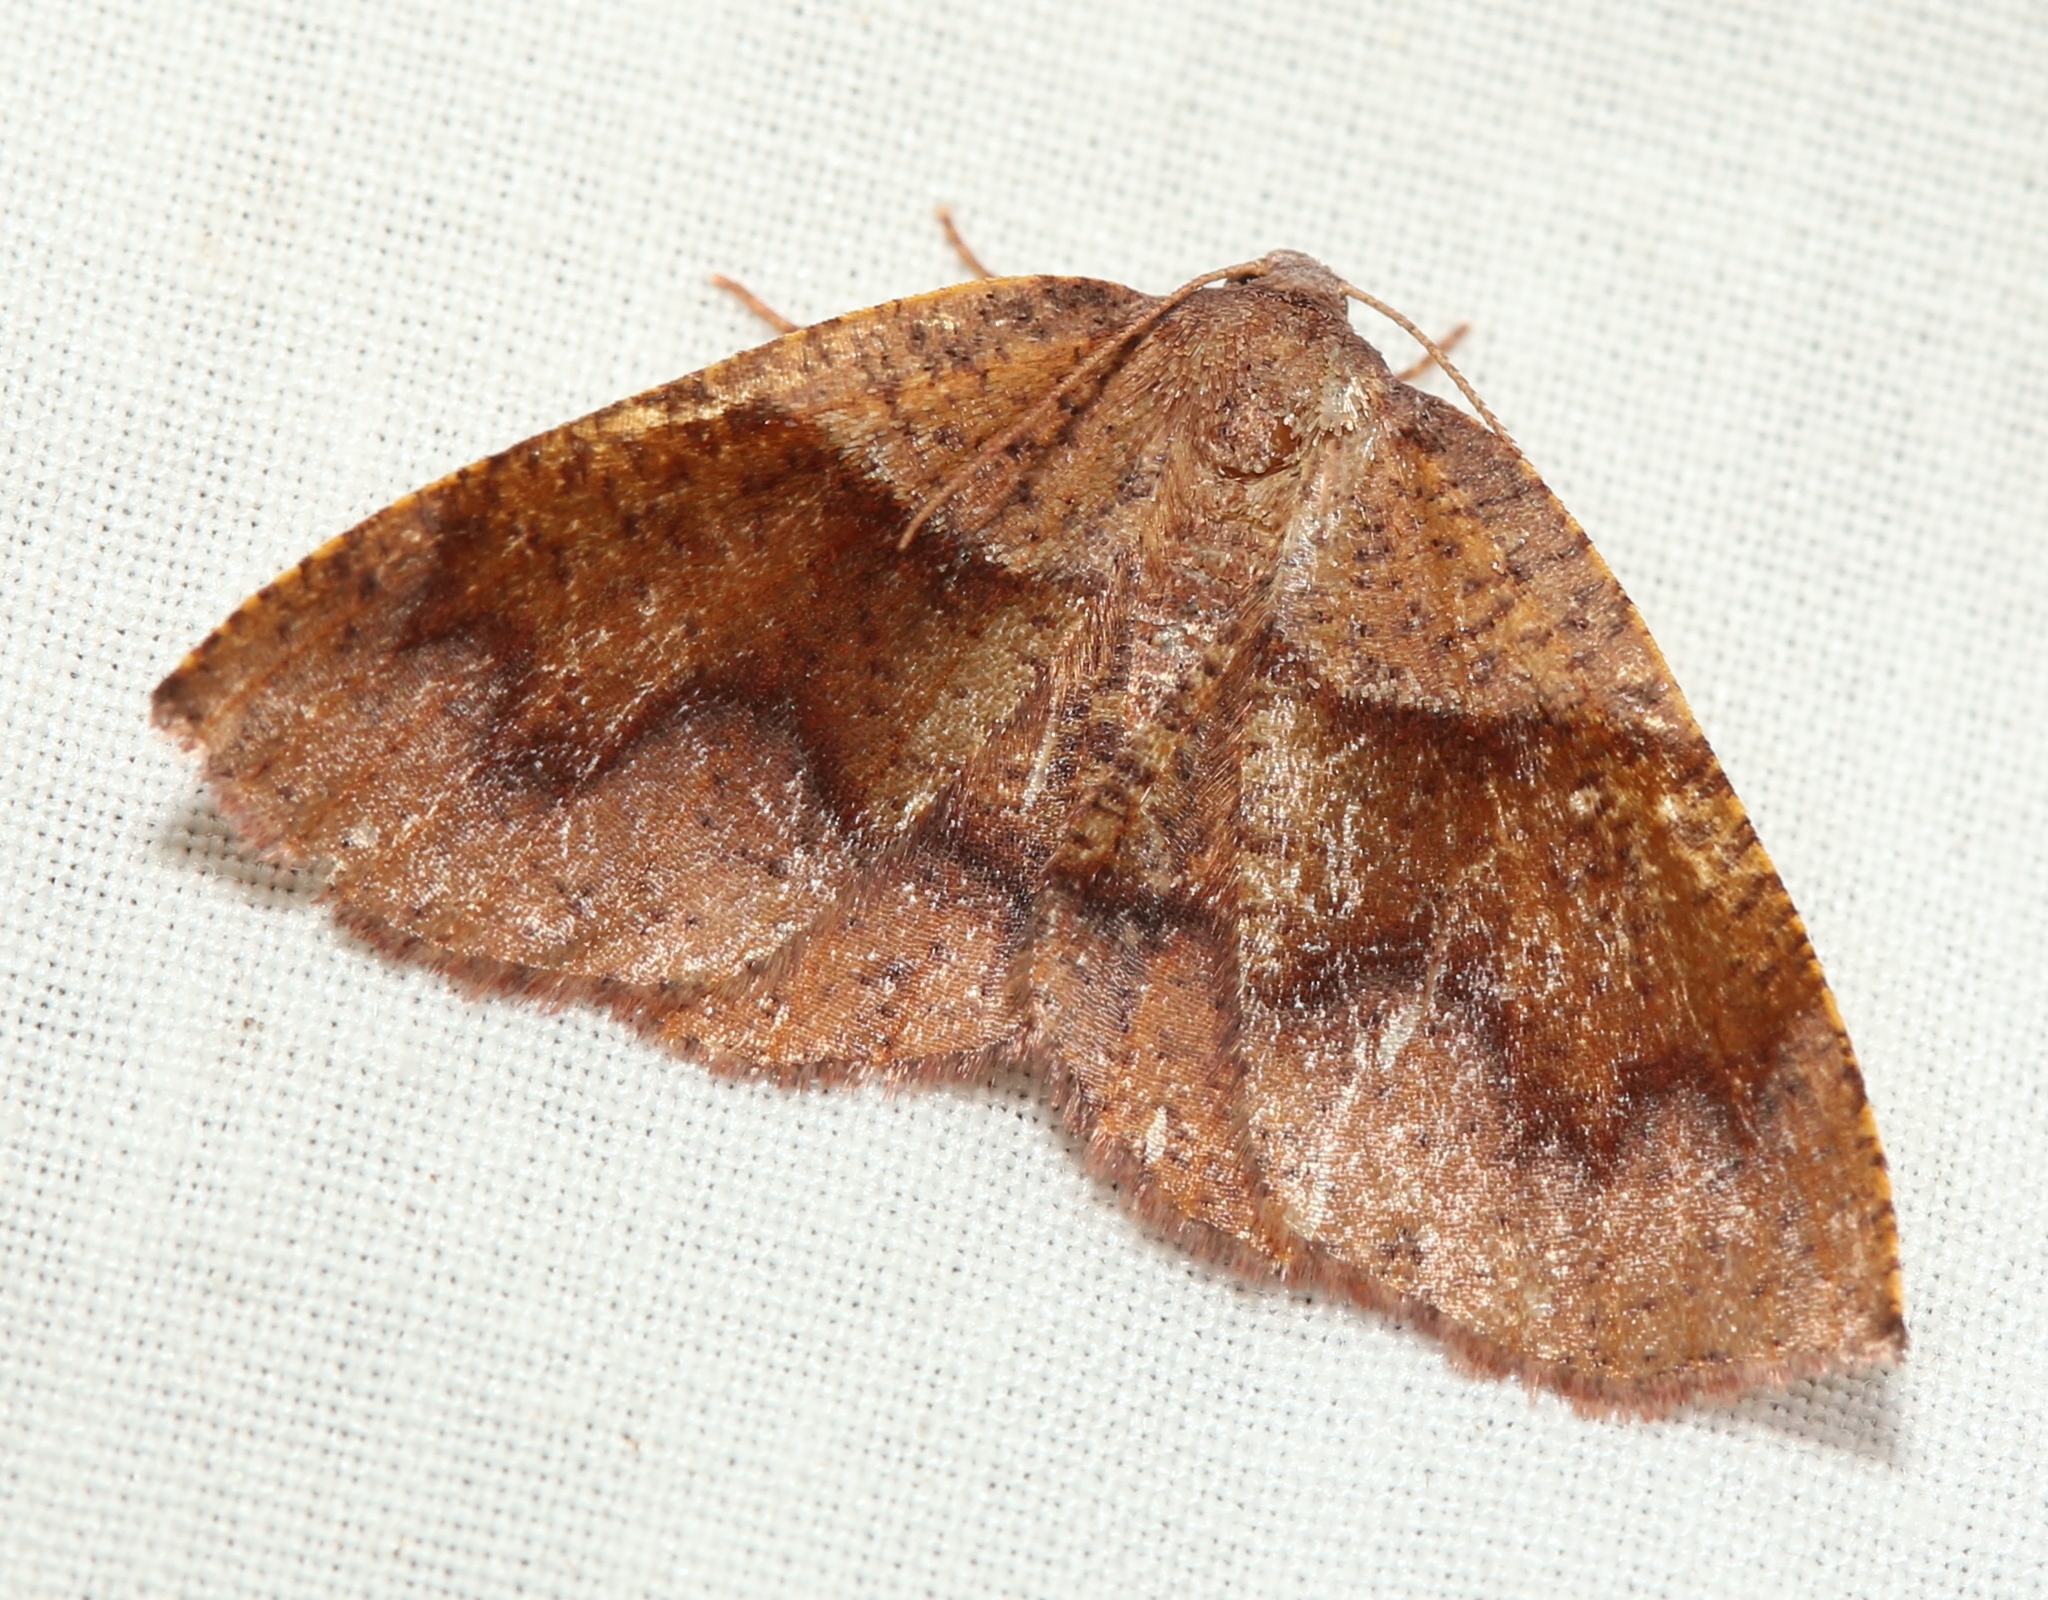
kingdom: Animalia
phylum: Arthropoda
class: Insecta
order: Lepidoptera
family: Geometridae
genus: Plagodis
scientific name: Plagodis pulveraria
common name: Barred umber
